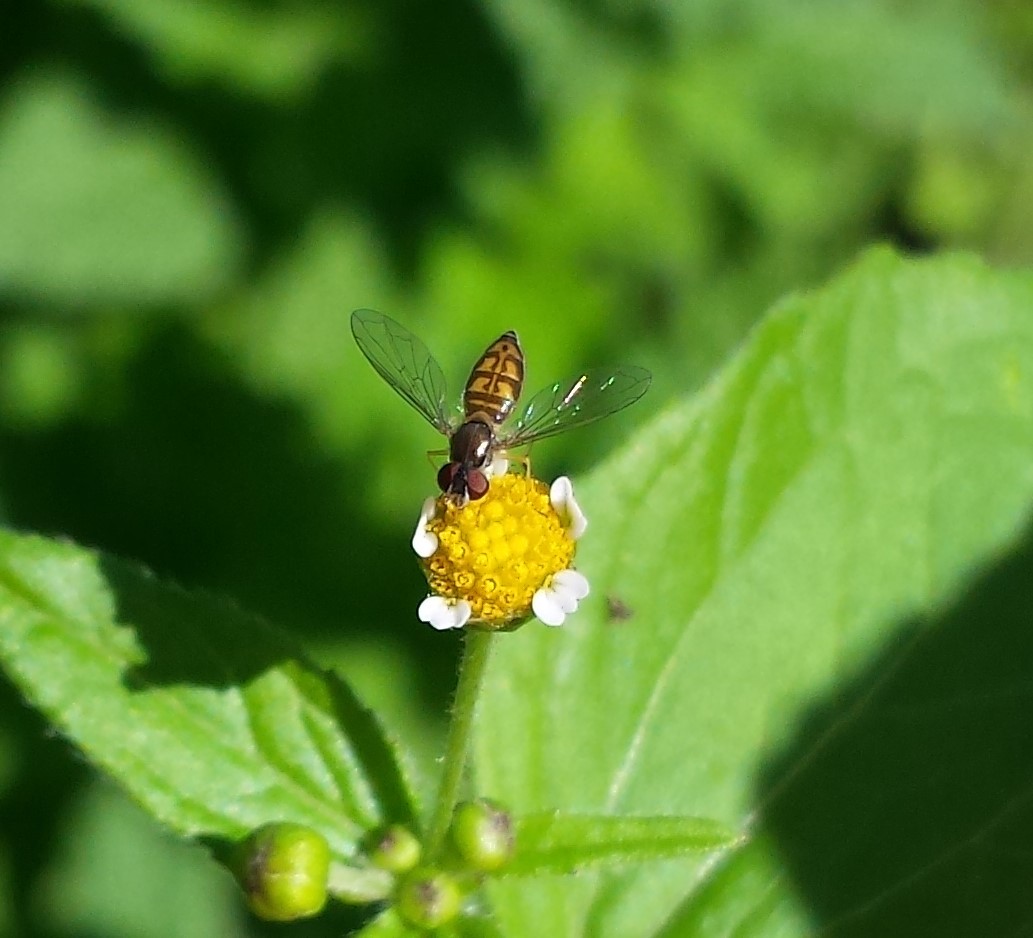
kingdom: Animalia
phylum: Arthropoda
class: Insecta
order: Diptera
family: Syrphidae
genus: Toxomerus
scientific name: Toxomerus marginatus
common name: Syrphid fly
